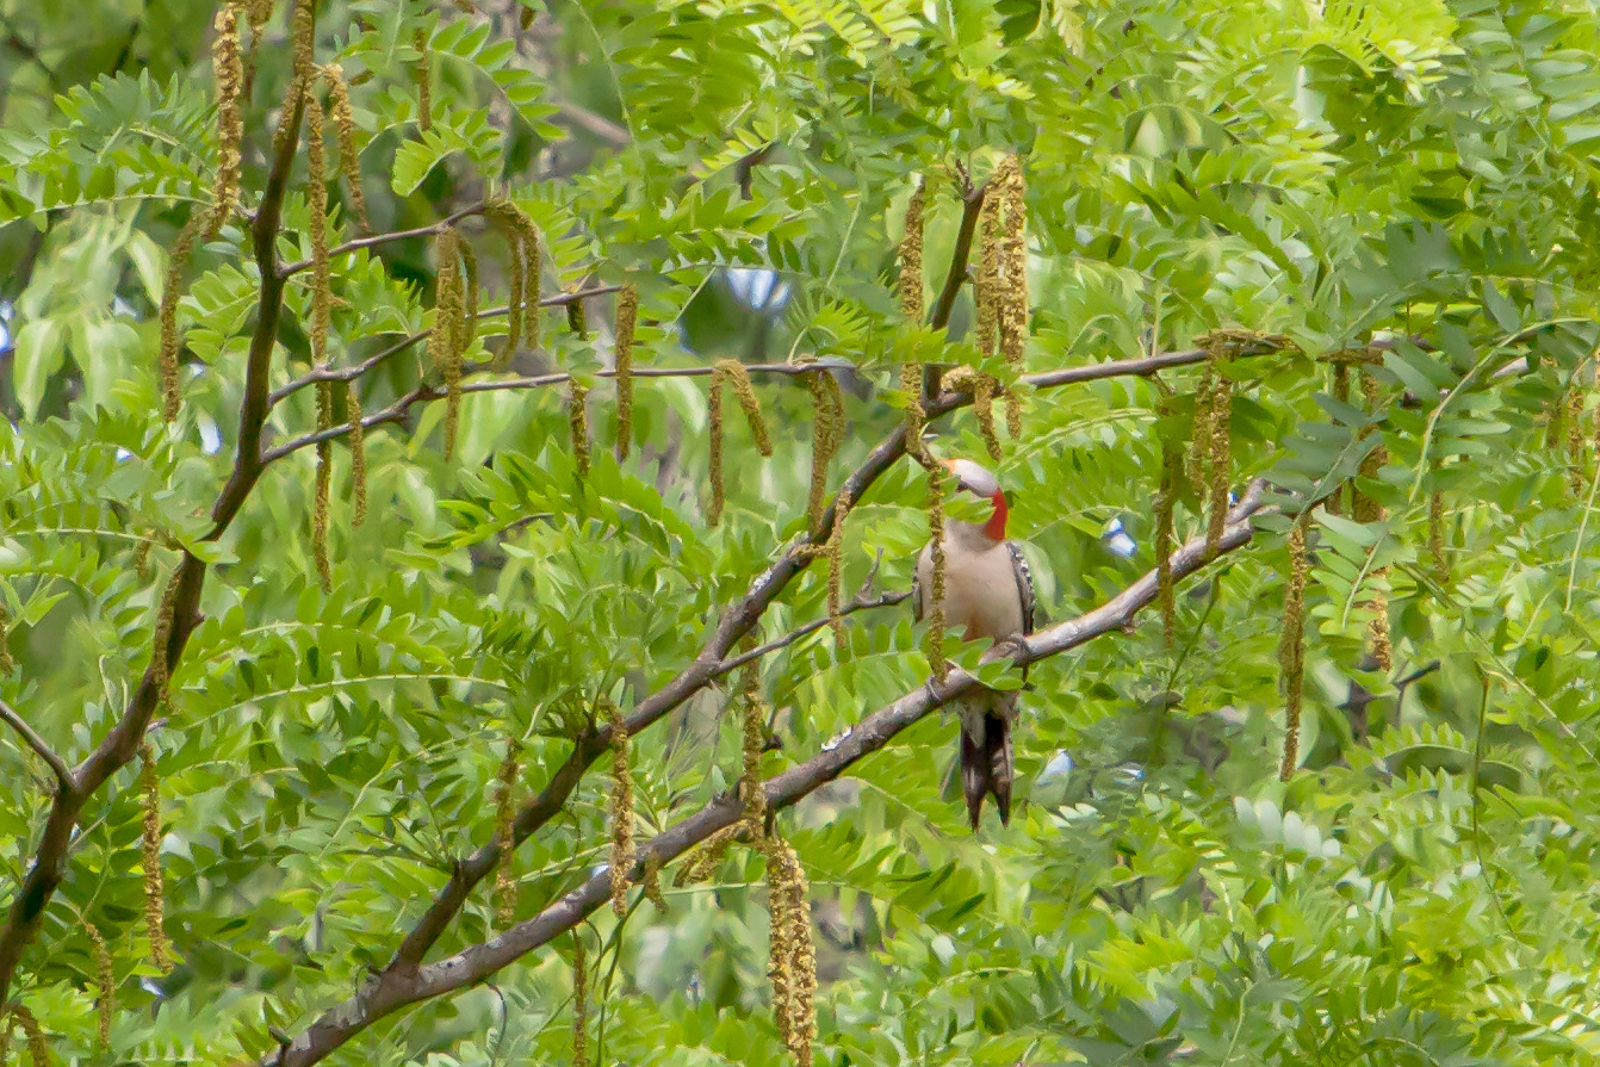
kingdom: Animalia
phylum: Chordata
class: Aves
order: Piciformes
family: Picidae
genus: Melanerpes
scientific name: Melanerpes carolinus
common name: Red-bellied woodpecker
